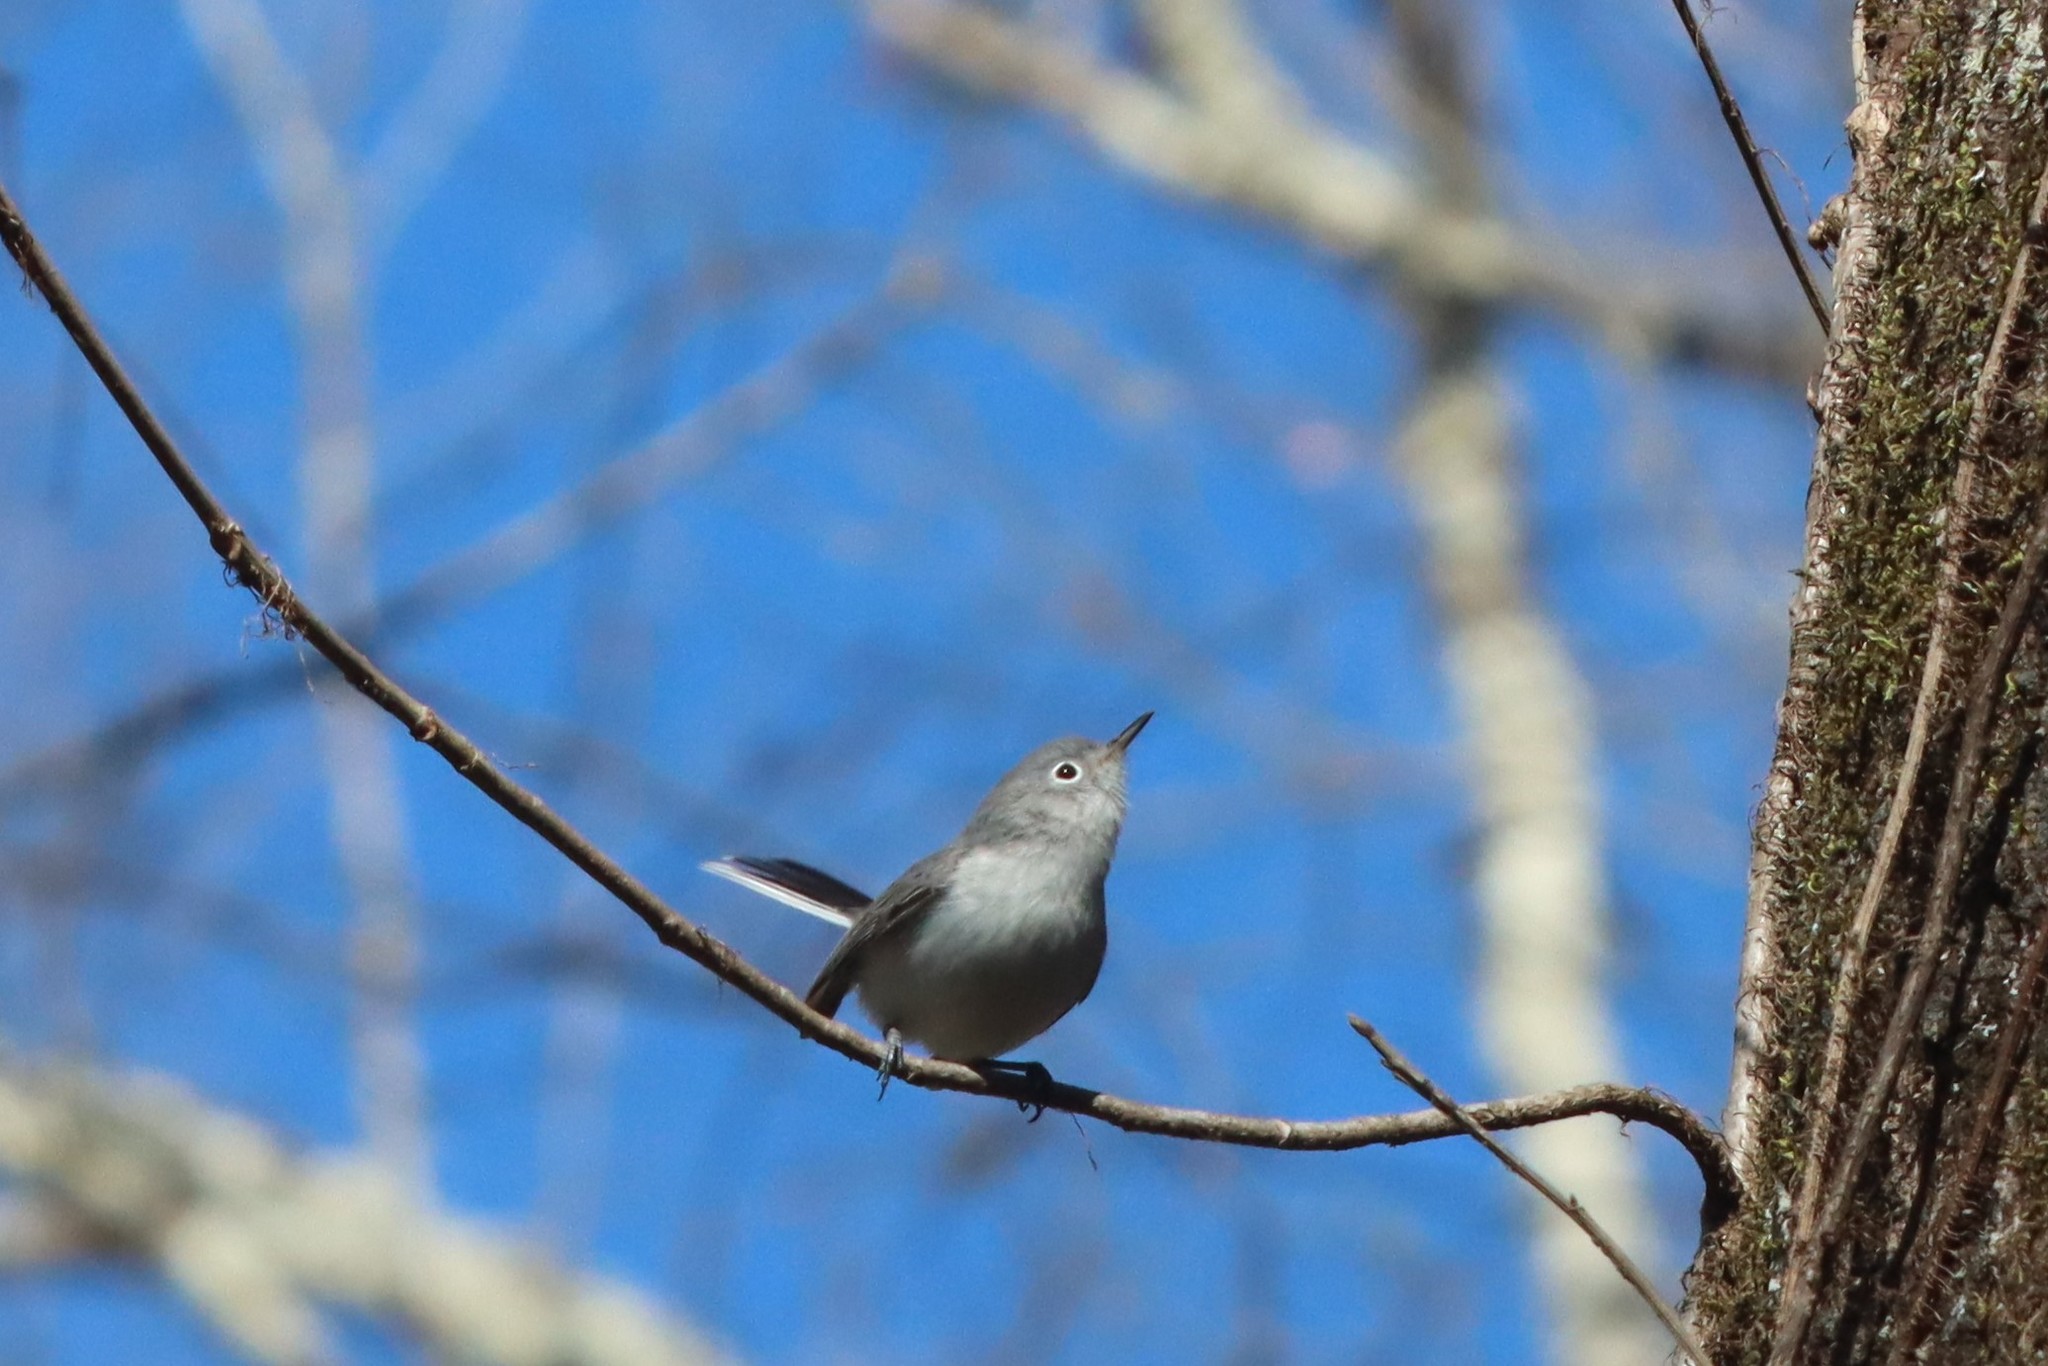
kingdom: Animalia
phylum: Chordata
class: Aves
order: Passeriformes
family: Polioptilidae
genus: Polioptila
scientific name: Polioptila caerulea
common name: Blue-gray gnatcatcher
